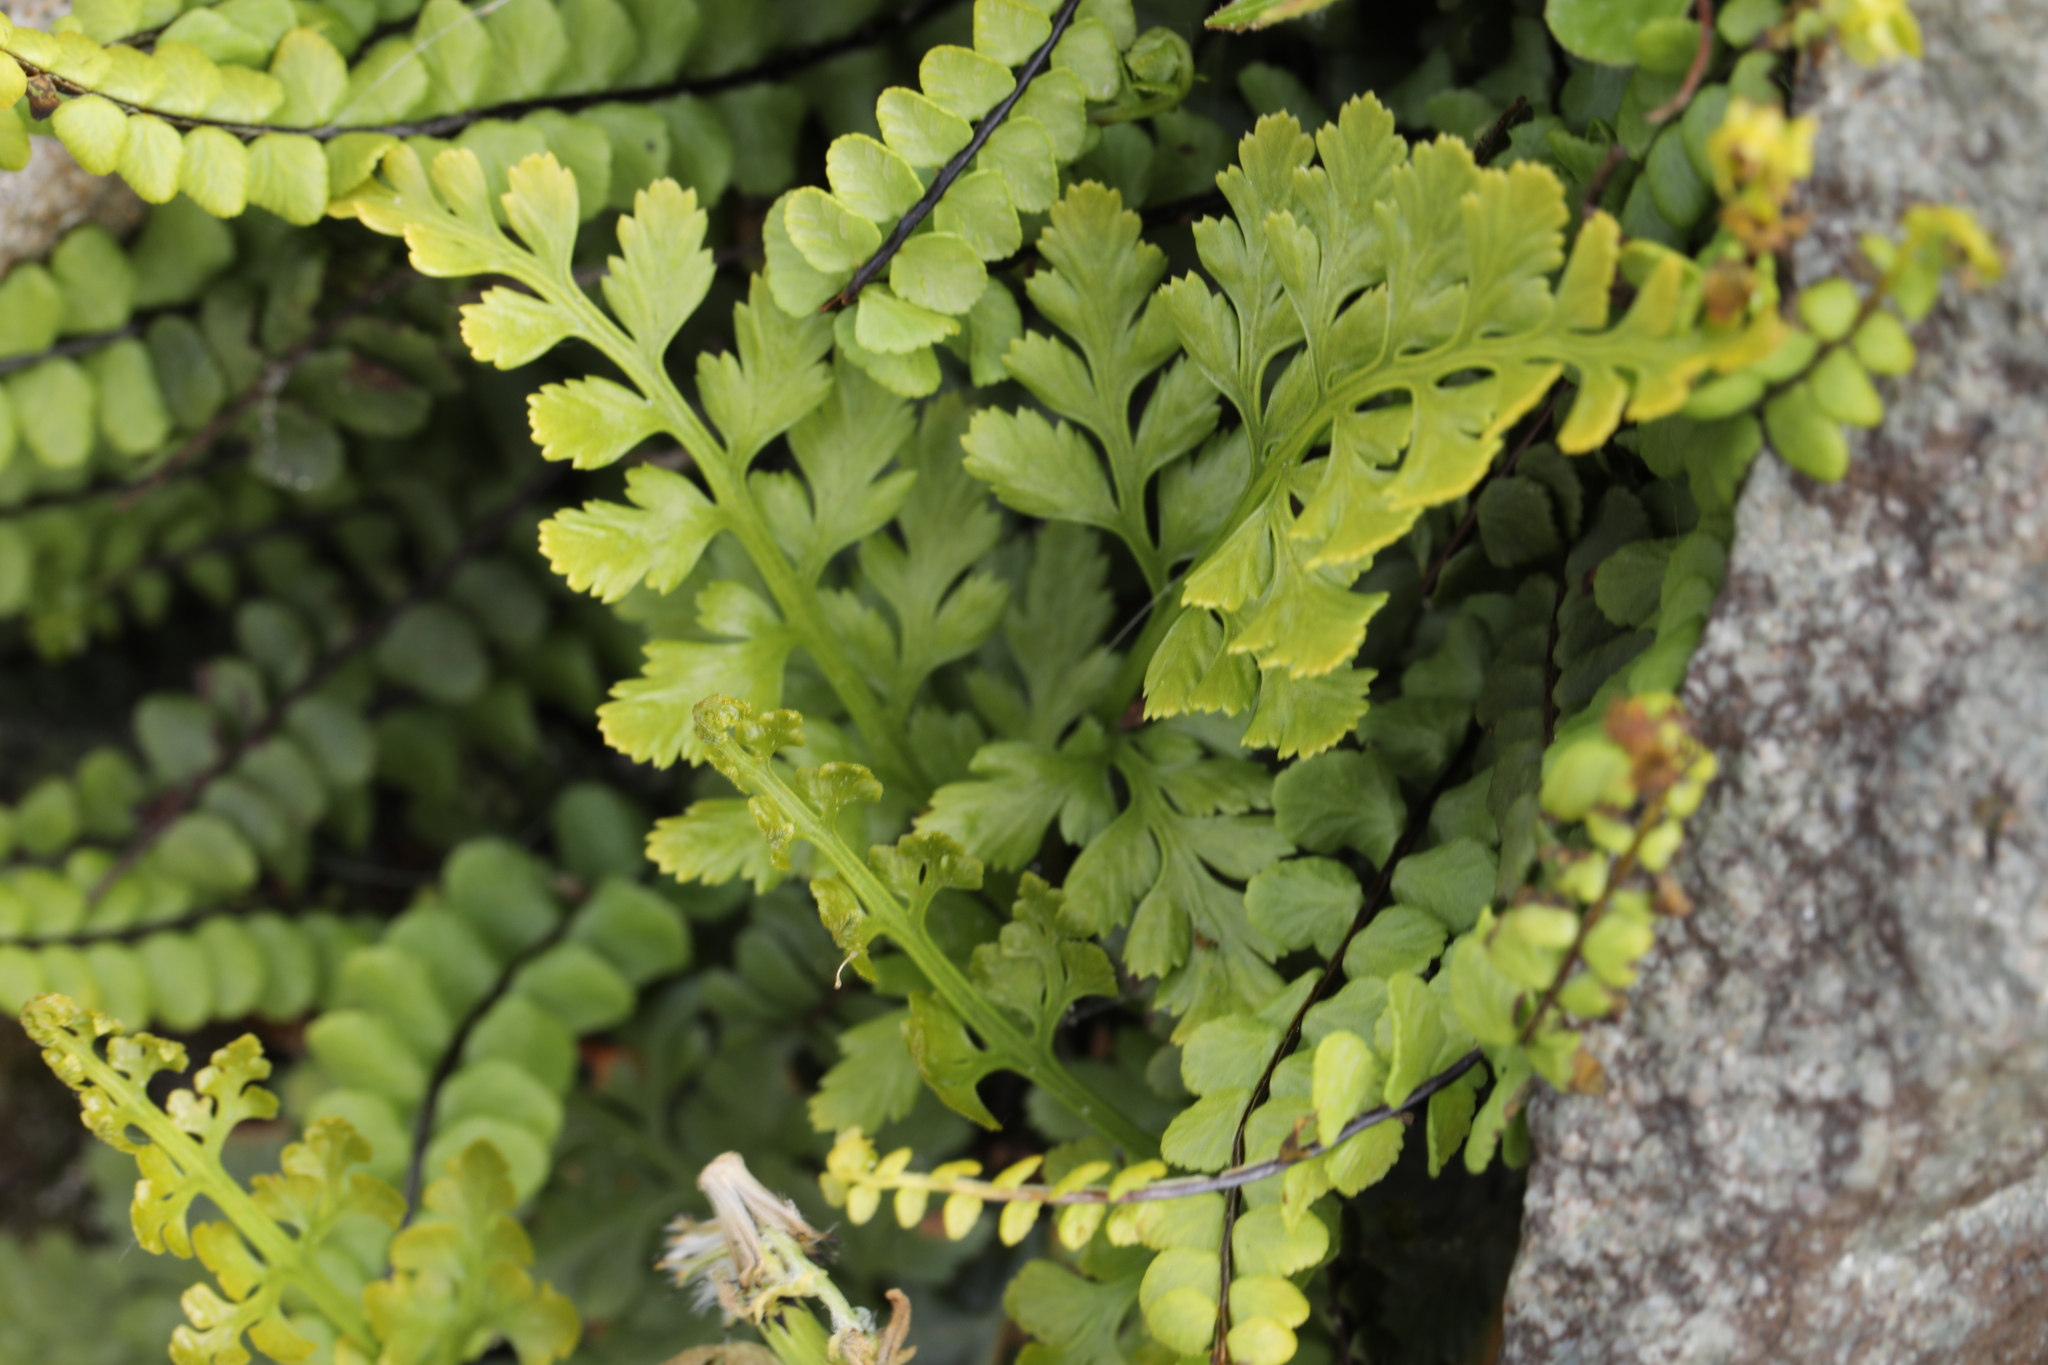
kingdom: Plantae
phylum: Tracheophyta
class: Polypodiopsida
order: Polypodiales
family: Aspleniaceae
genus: Asplenium
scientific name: Asplenium adiantum-nigrum
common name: Black spleenwort
